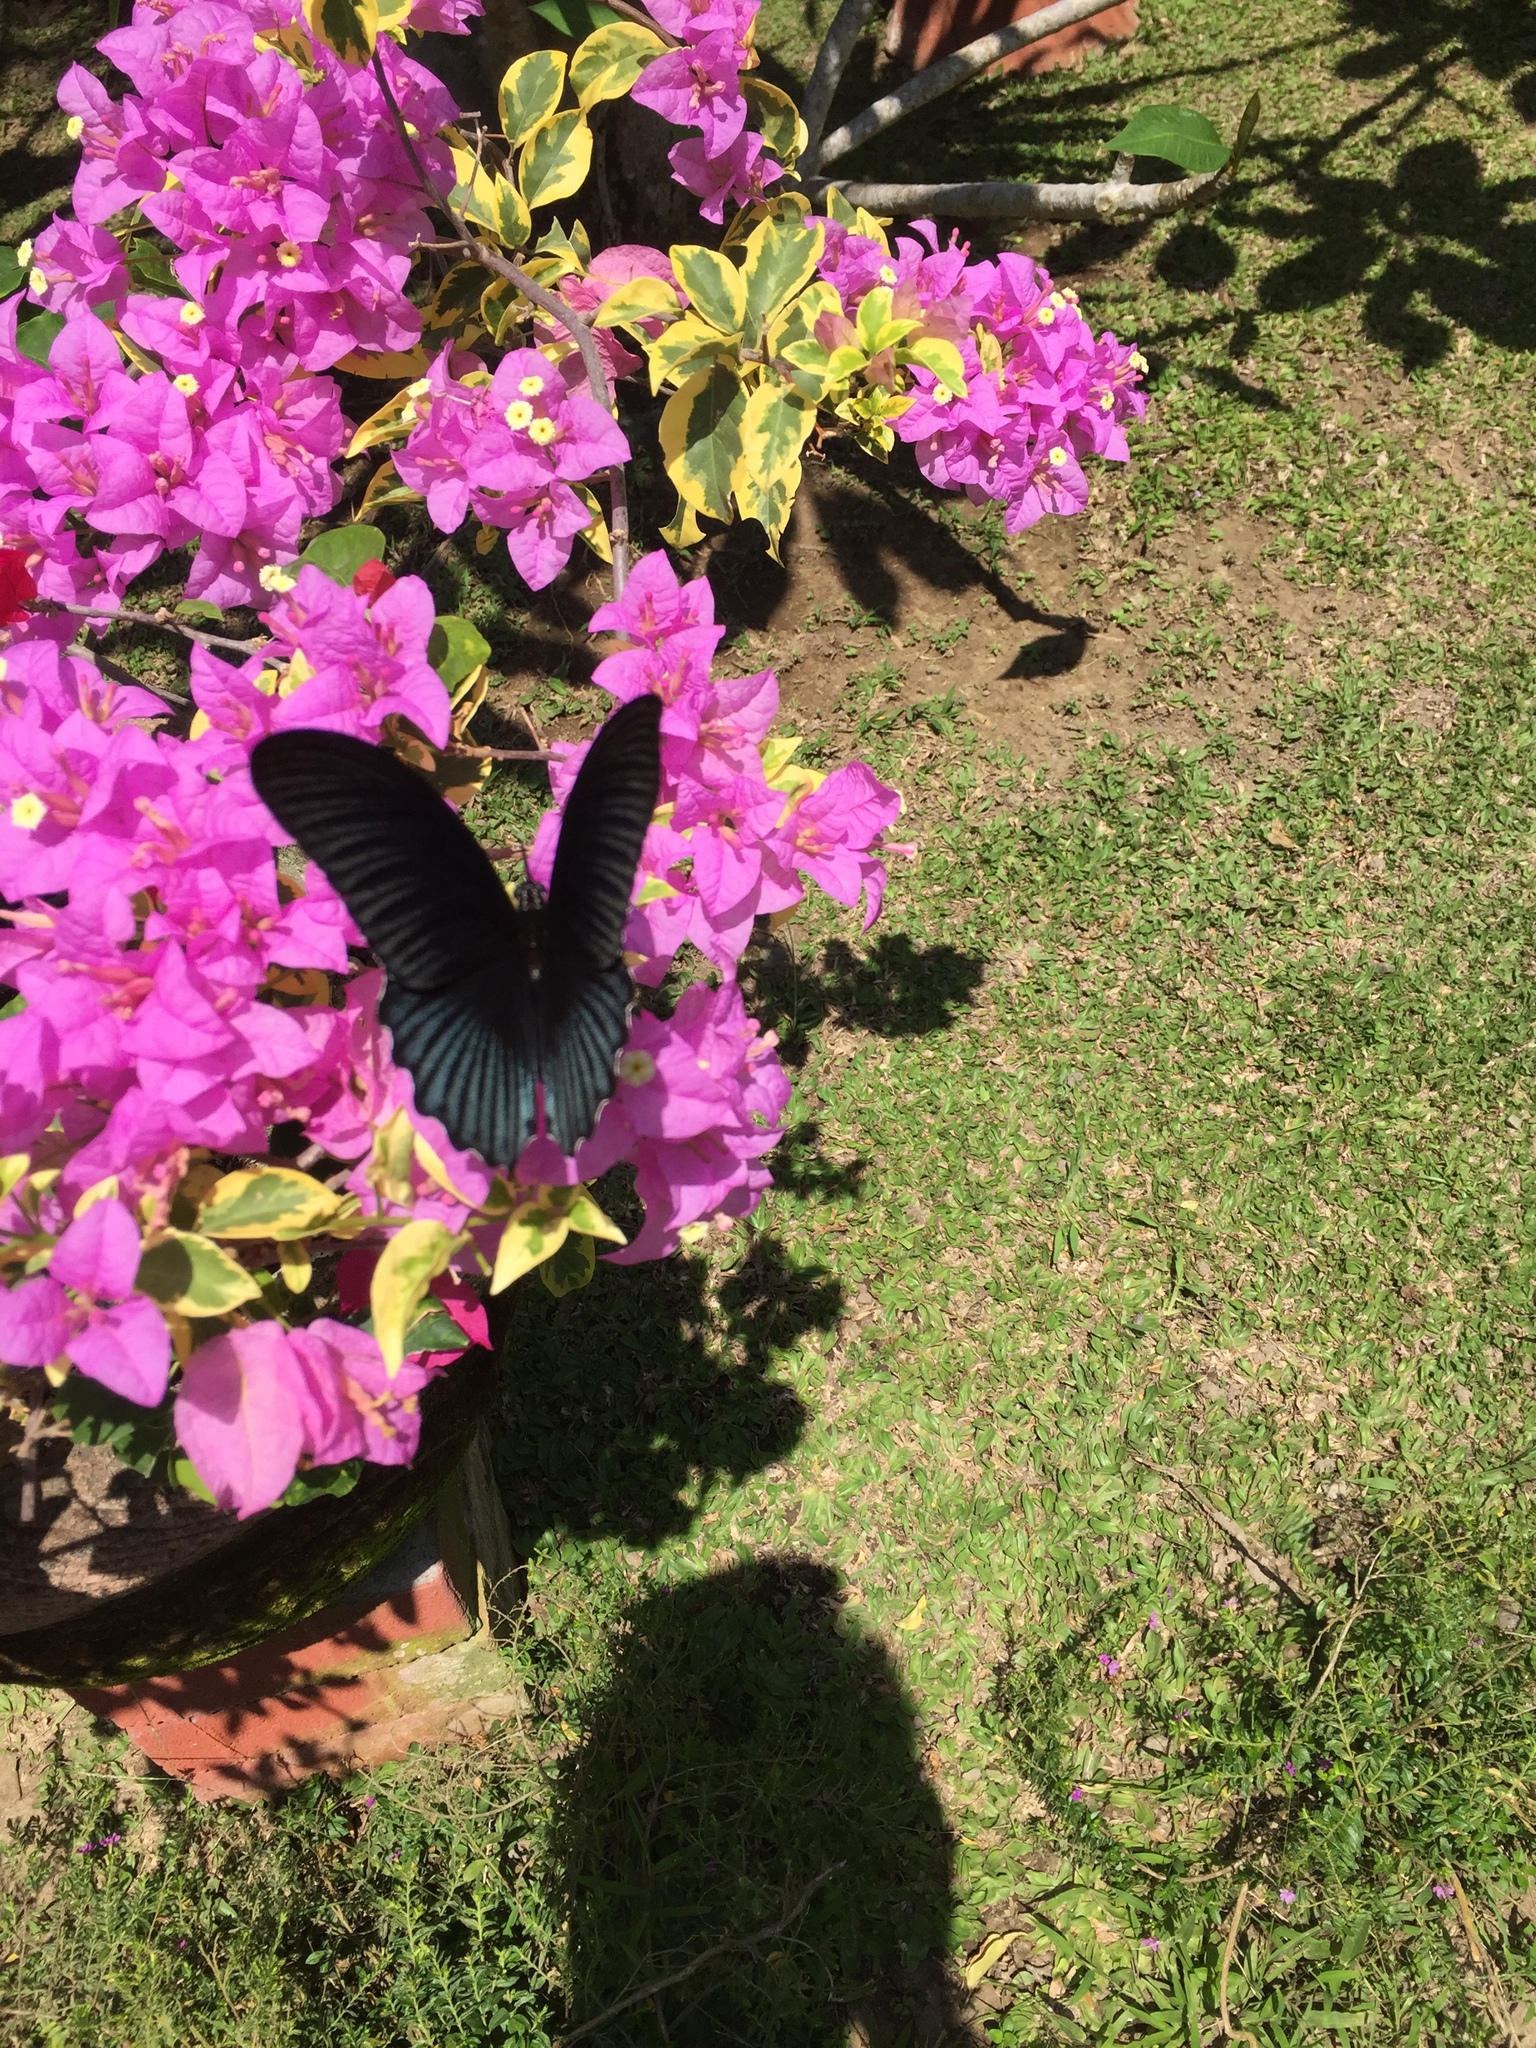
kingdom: Animalia
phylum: Arthropoda
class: Insecta
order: Lepidoptera
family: Papilionidae
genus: Papilio
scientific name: Papilio memnon
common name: Great mormon
